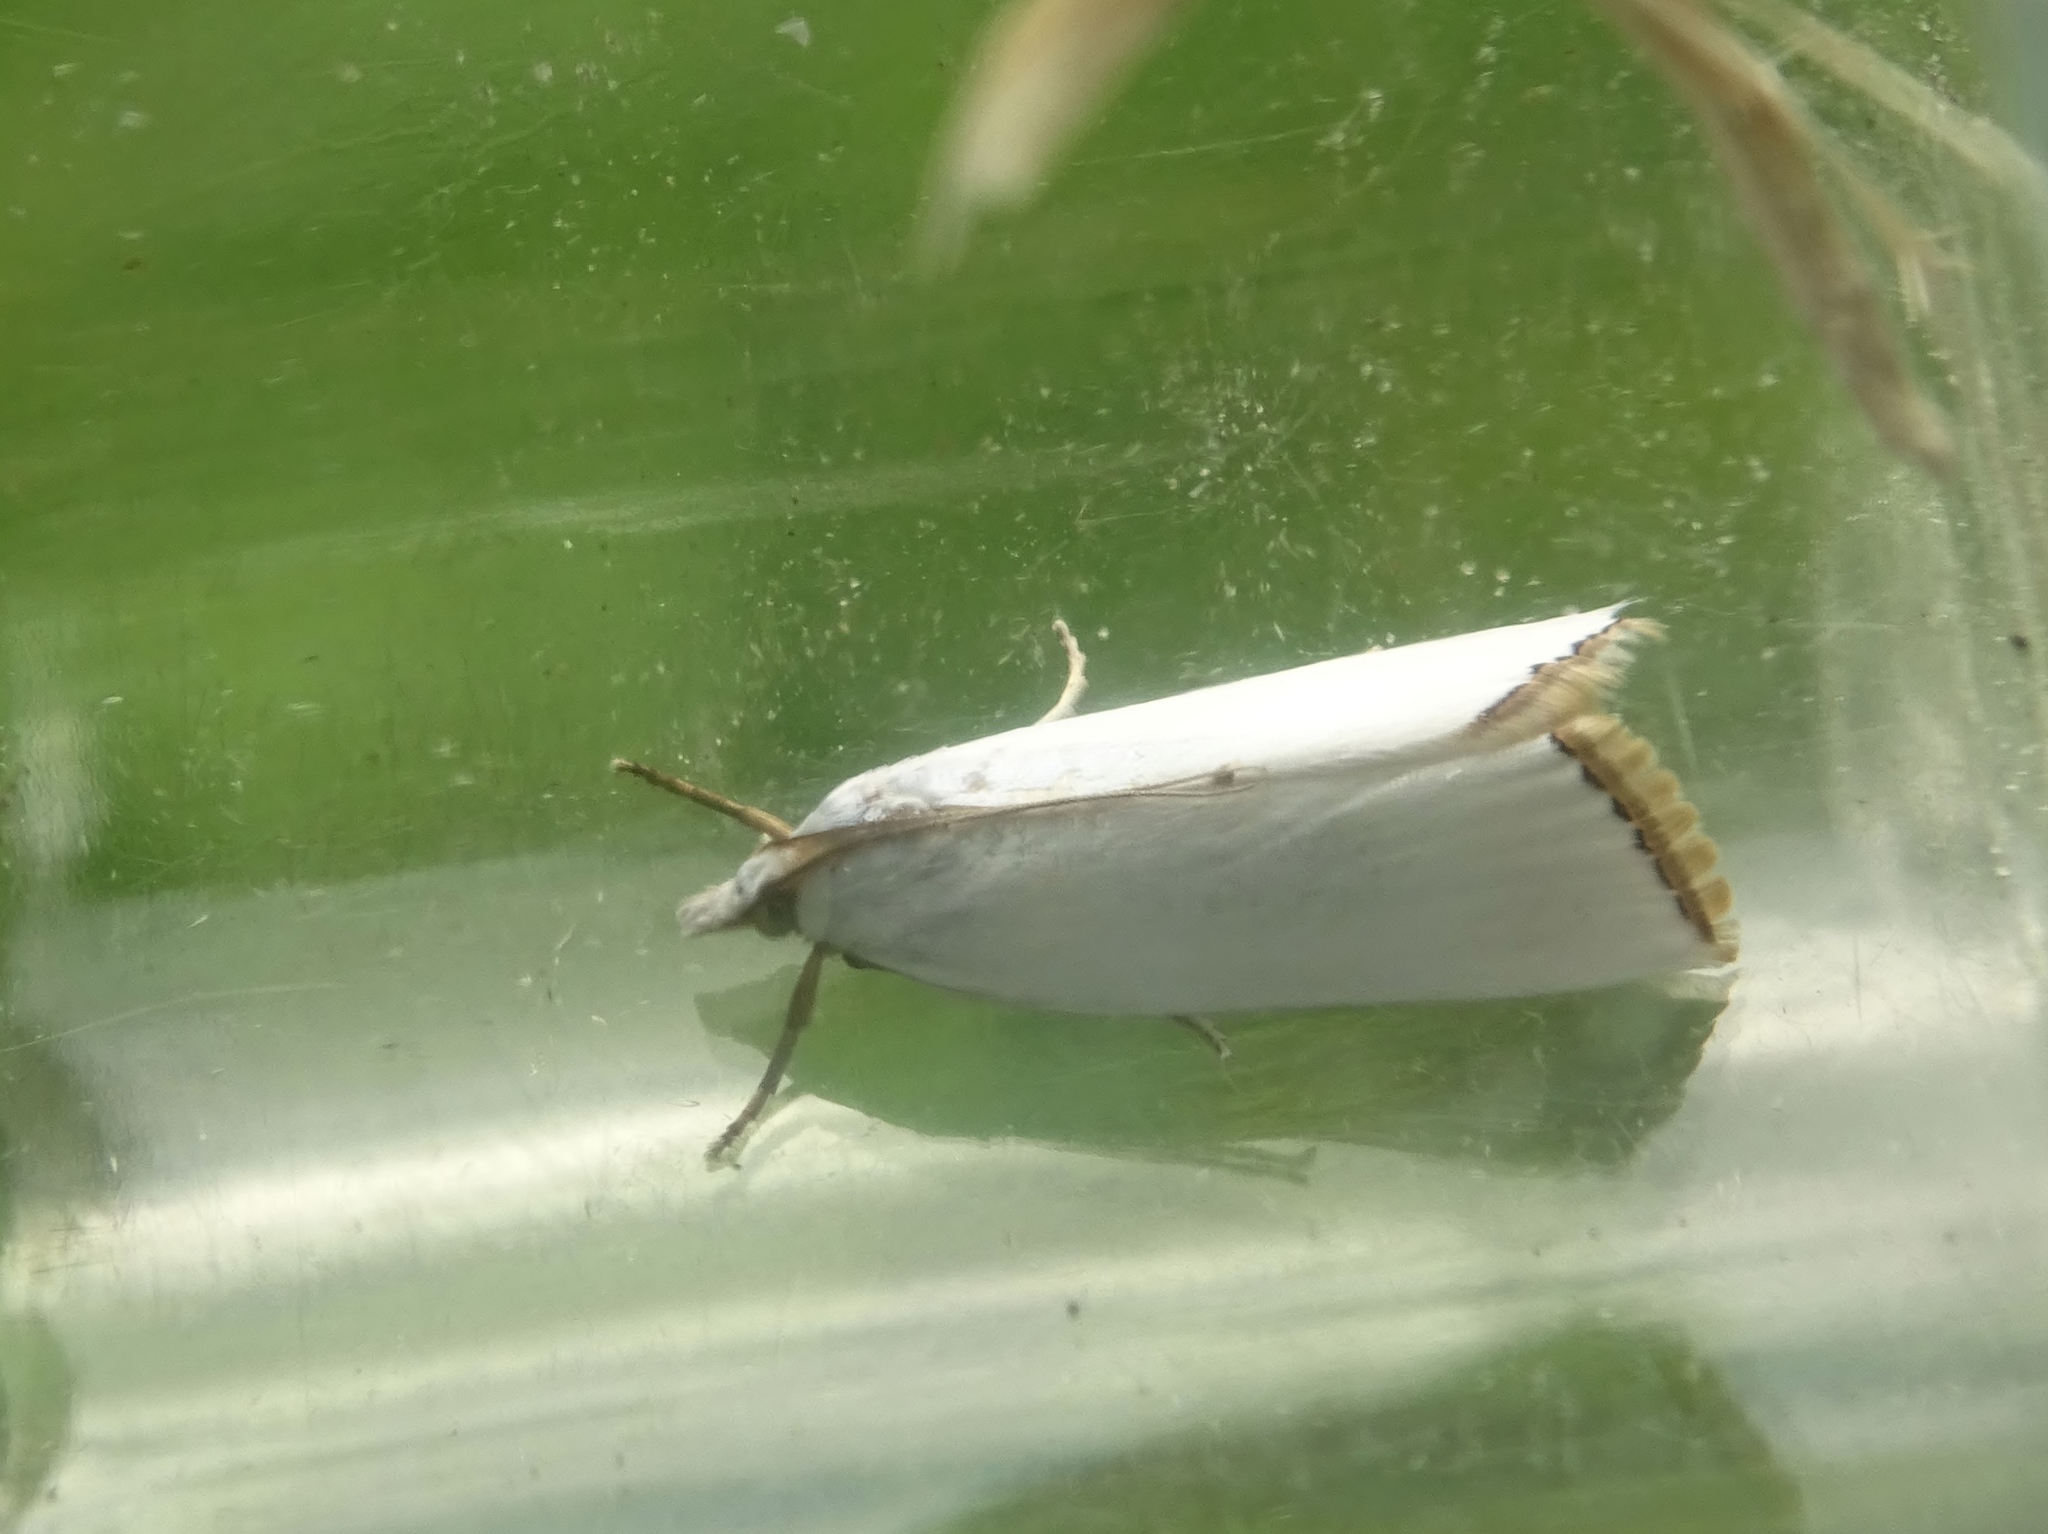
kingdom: Animalia
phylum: Arthropoda
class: Insecta
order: Lepidoptera
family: Crambidae
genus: Argyria
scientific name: Argyria nivalis
